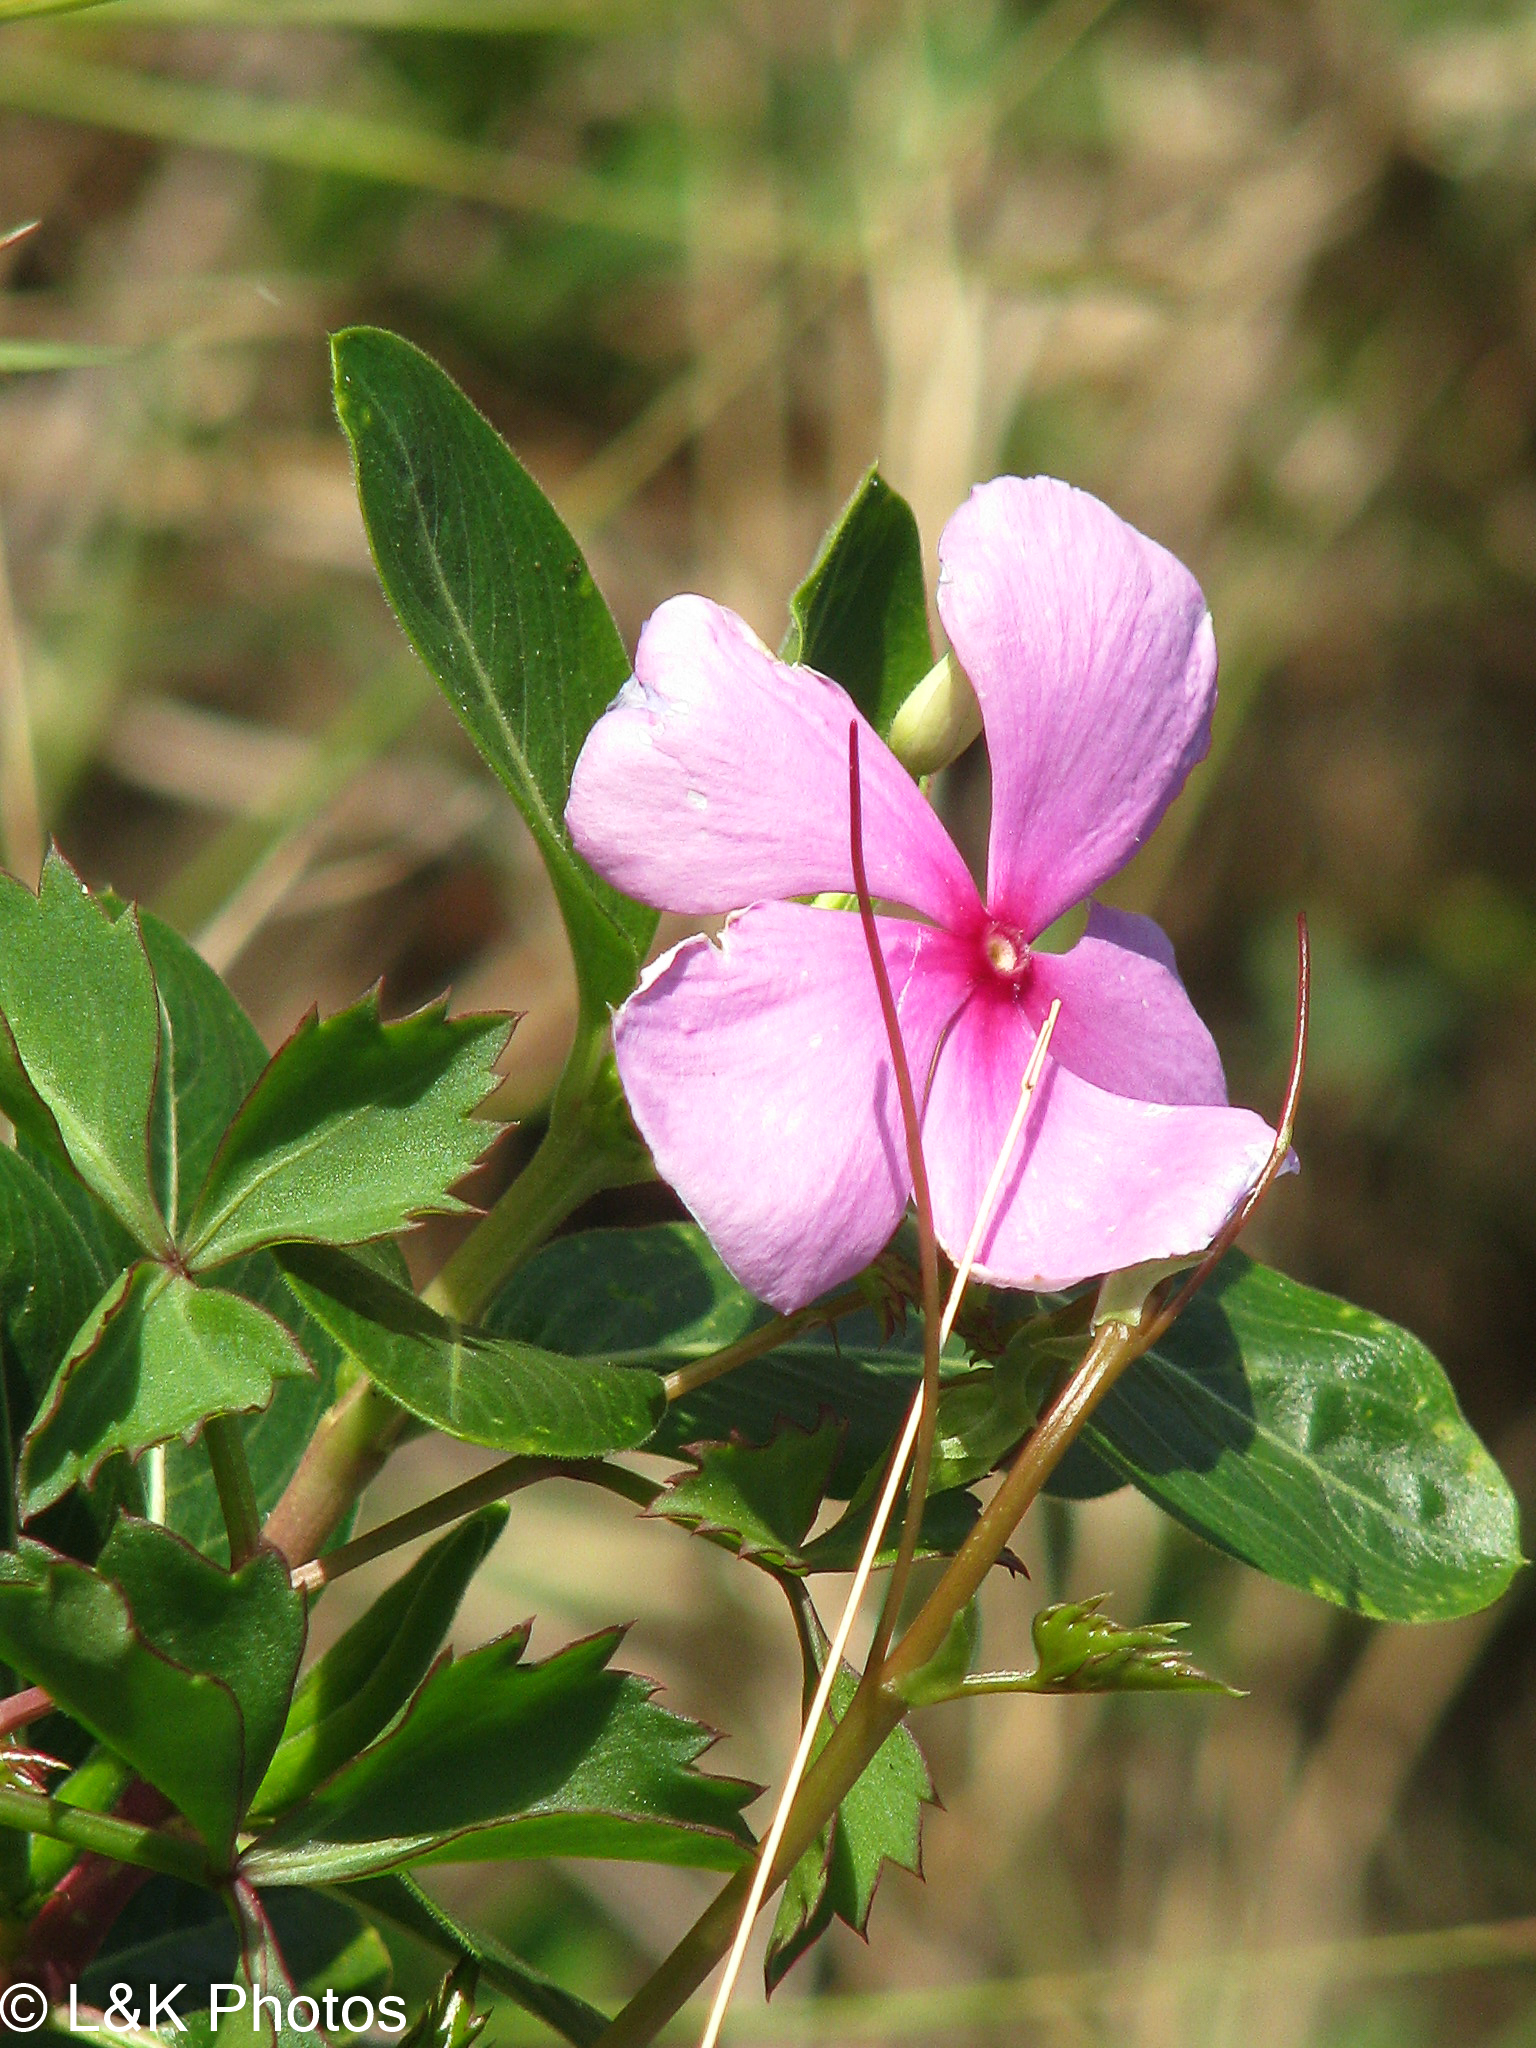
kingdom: Plantae
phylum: Tracheophyta
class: Magnoliopsida
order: Gentianales
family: Apocynaceae
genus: Catharanthus
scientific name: Catharanthus roseus
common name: Madagascar periwinkle
